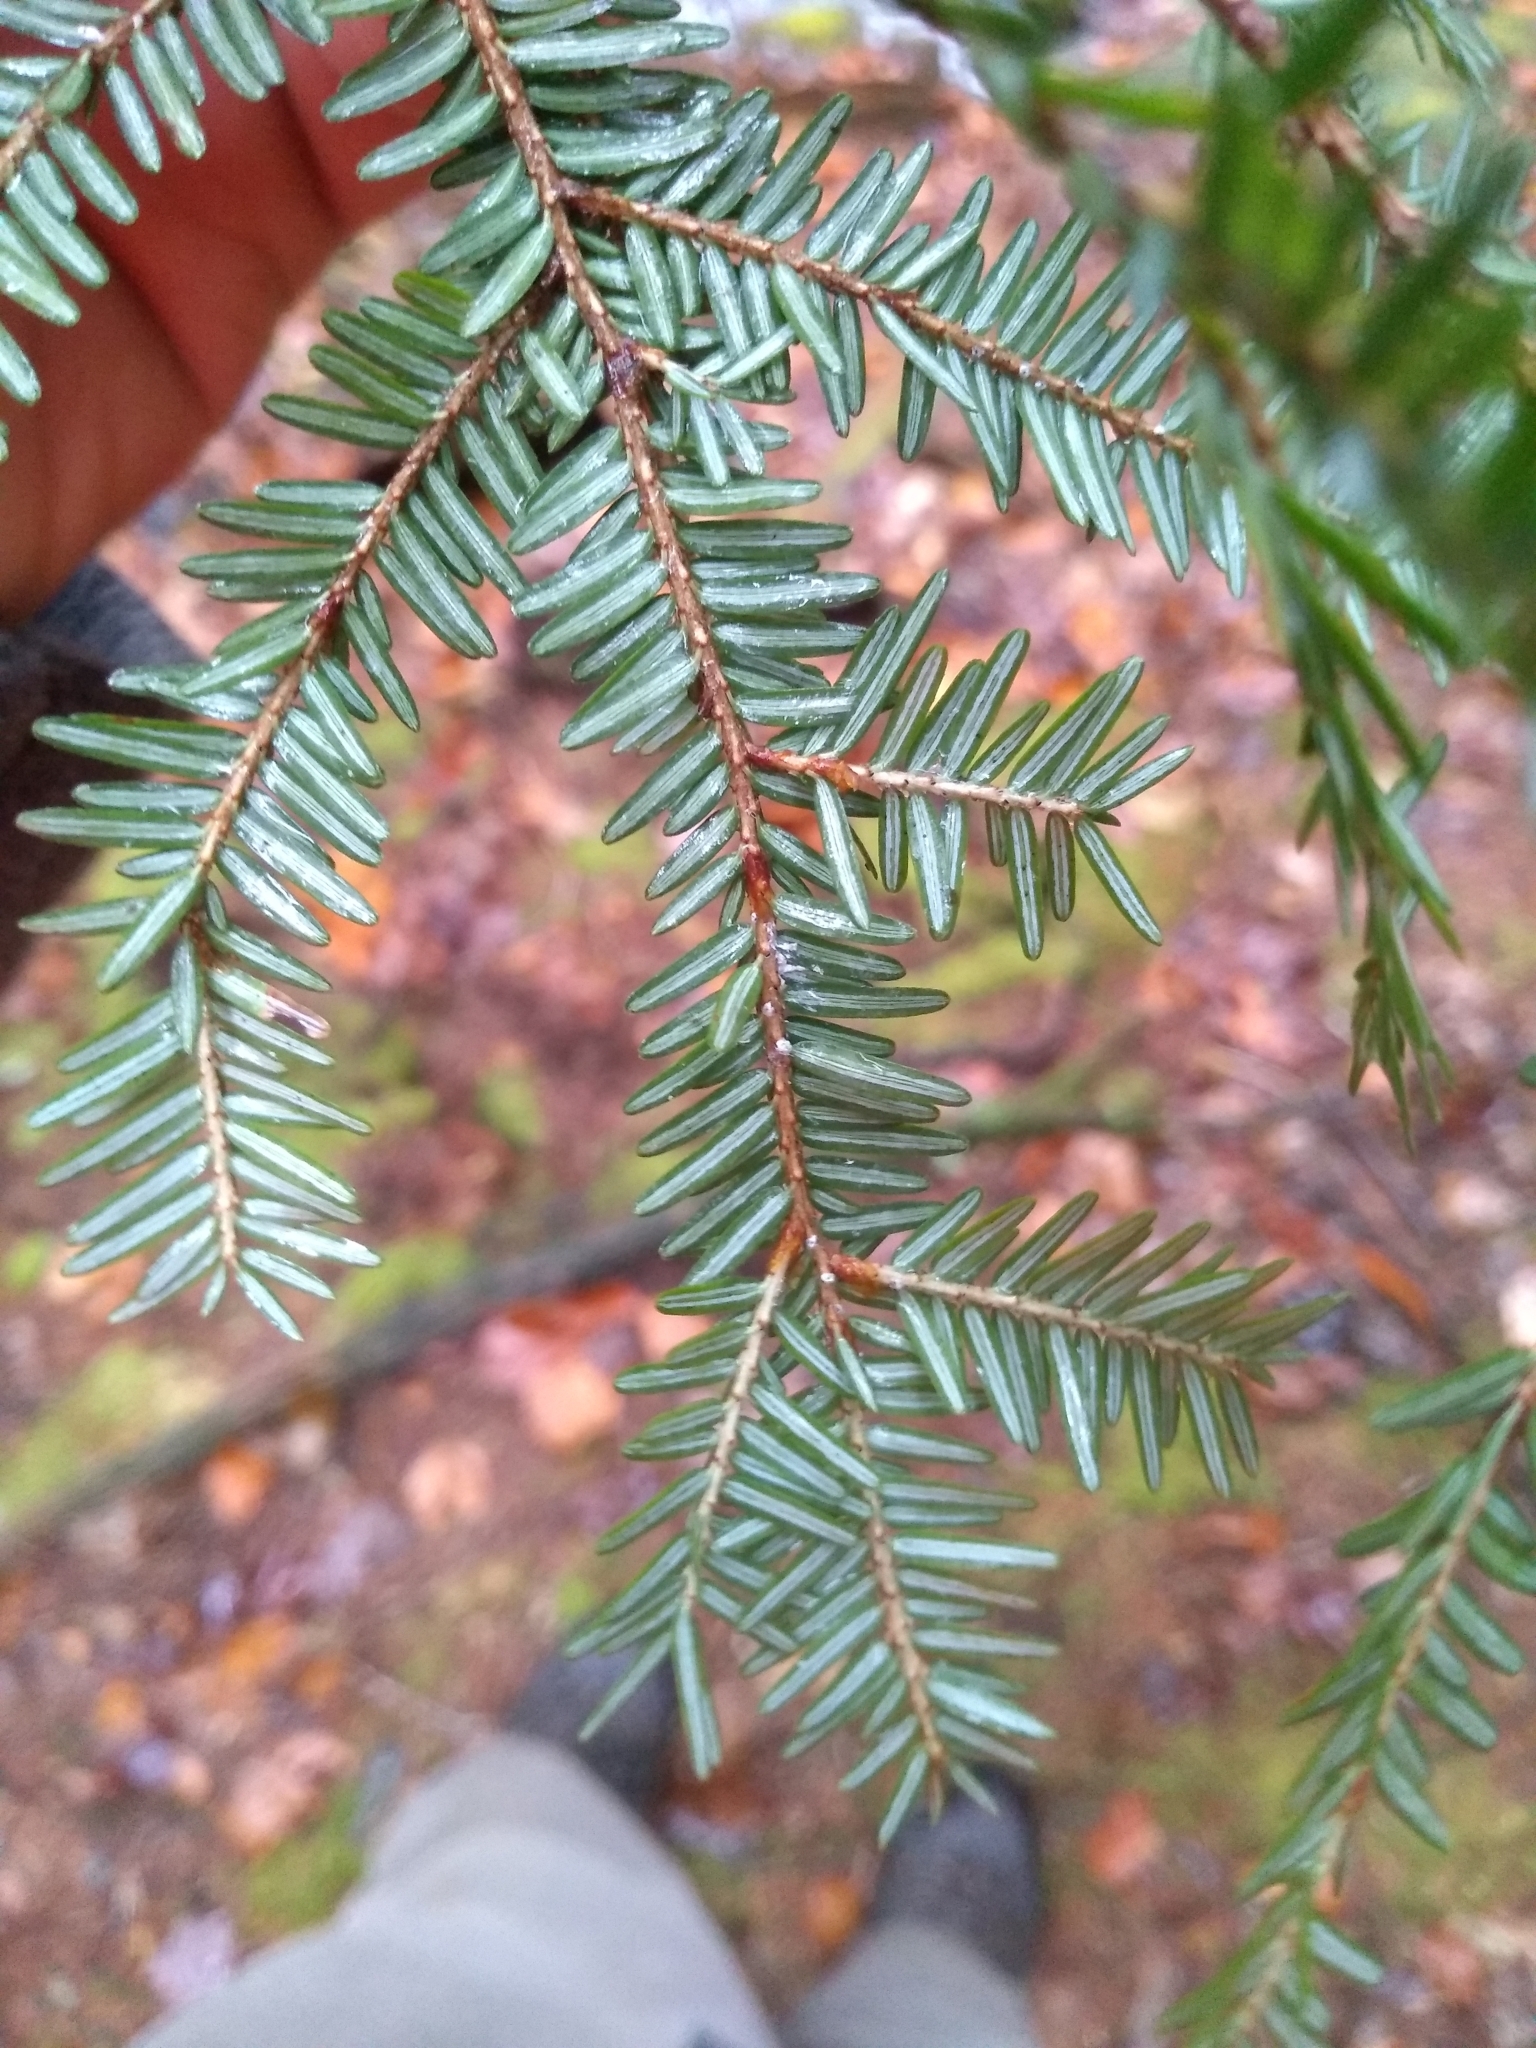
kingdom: Animalia
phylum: Arthropoda
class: Insecta
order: Hemiptera
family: Adelgidae
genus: Adelges
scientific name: Adelges tsugae
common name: Hemlock woolly adelgid
